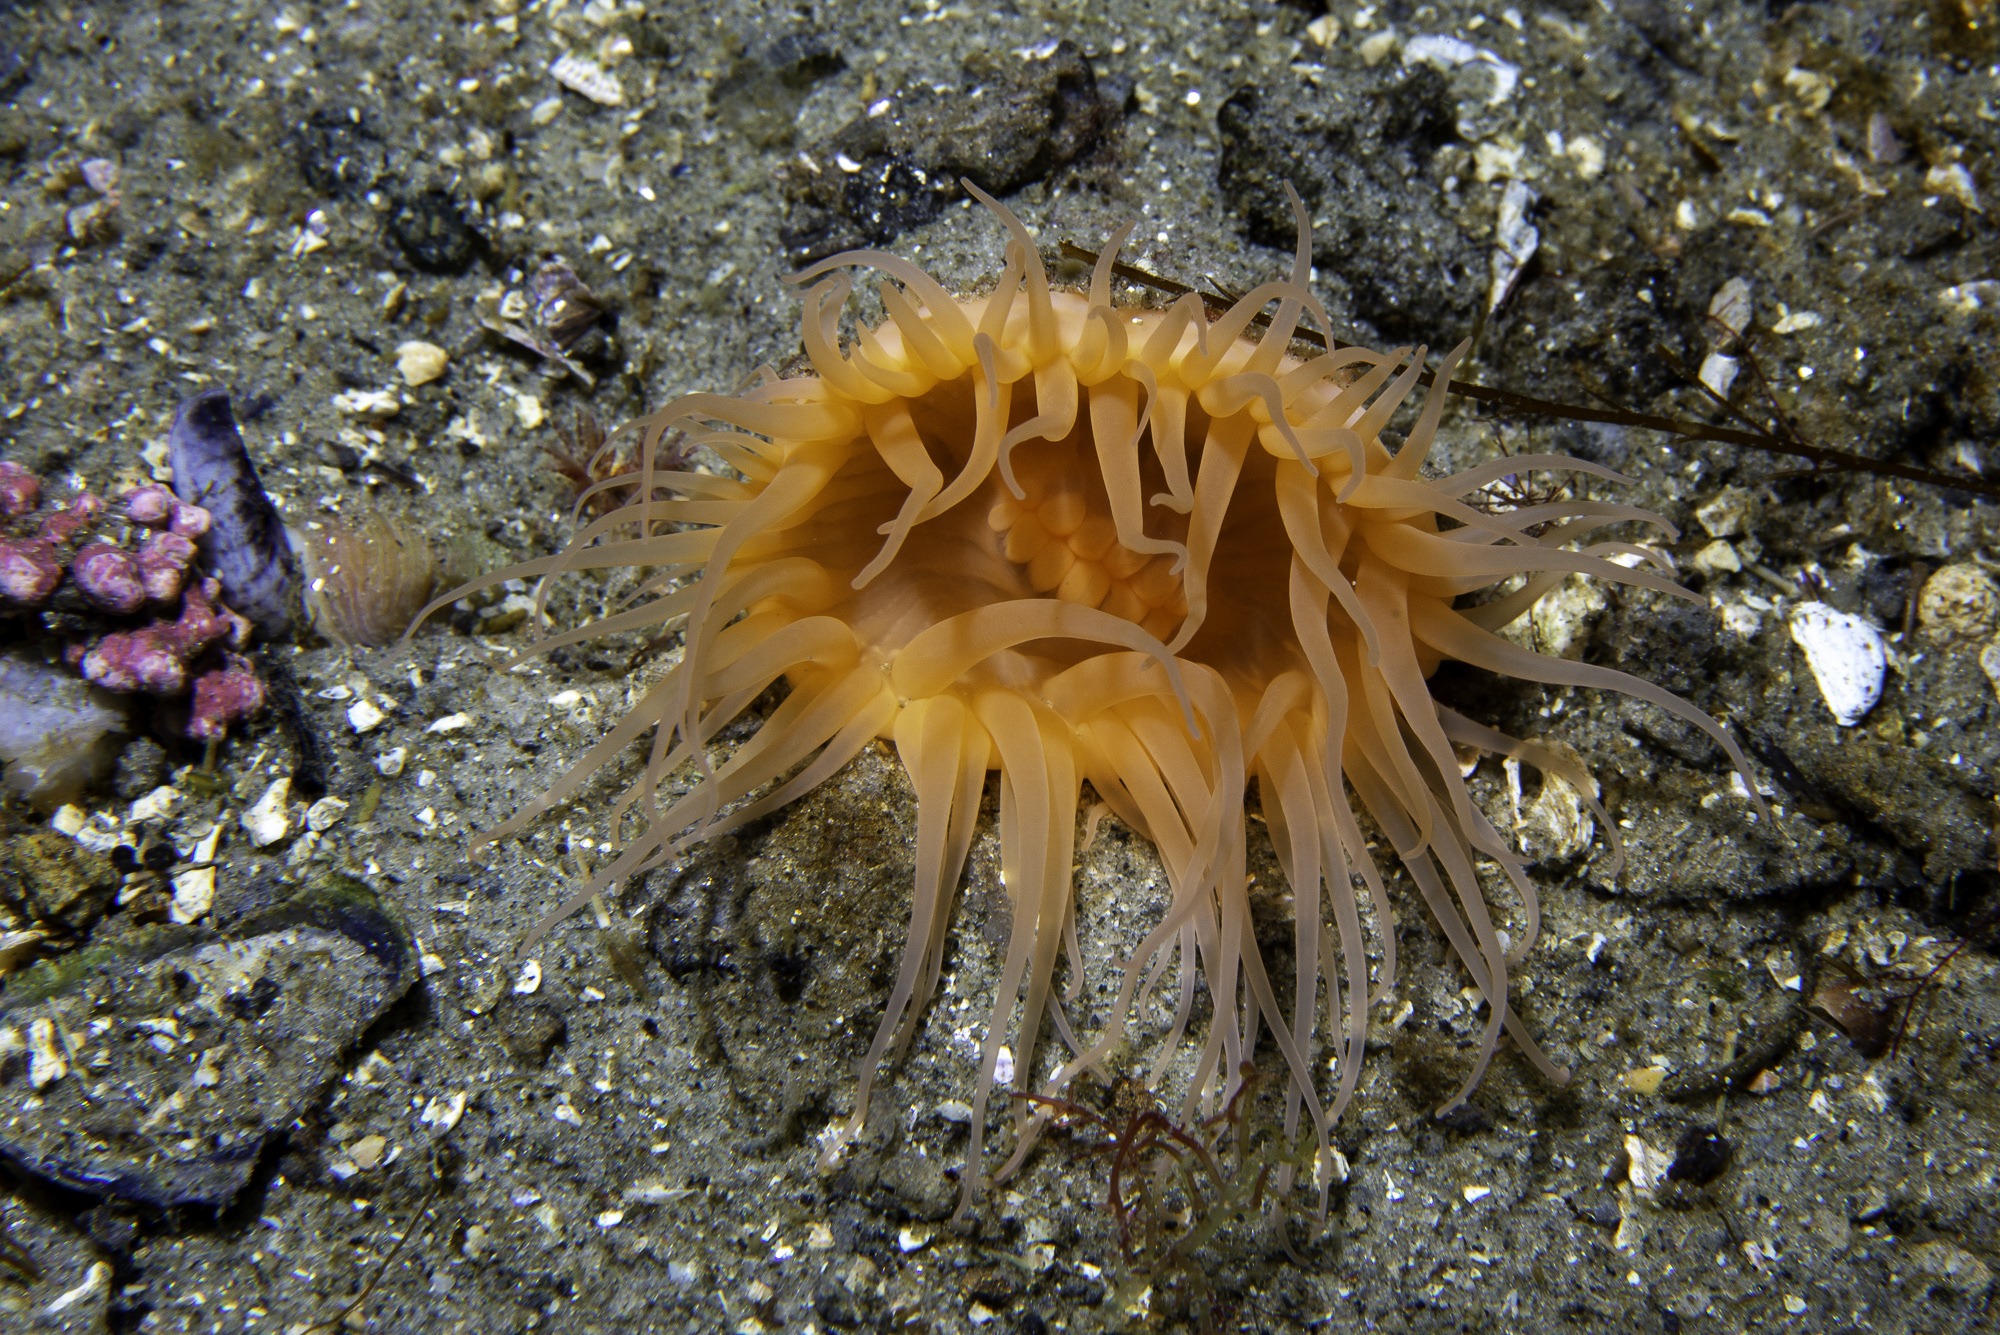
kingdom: Animalia
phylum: Cnidaria
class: Anthozoa
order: Actiniaria
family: Hormathiidae
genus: Hormathia
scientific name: Hormathia digitata
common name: Maned sea anemone
